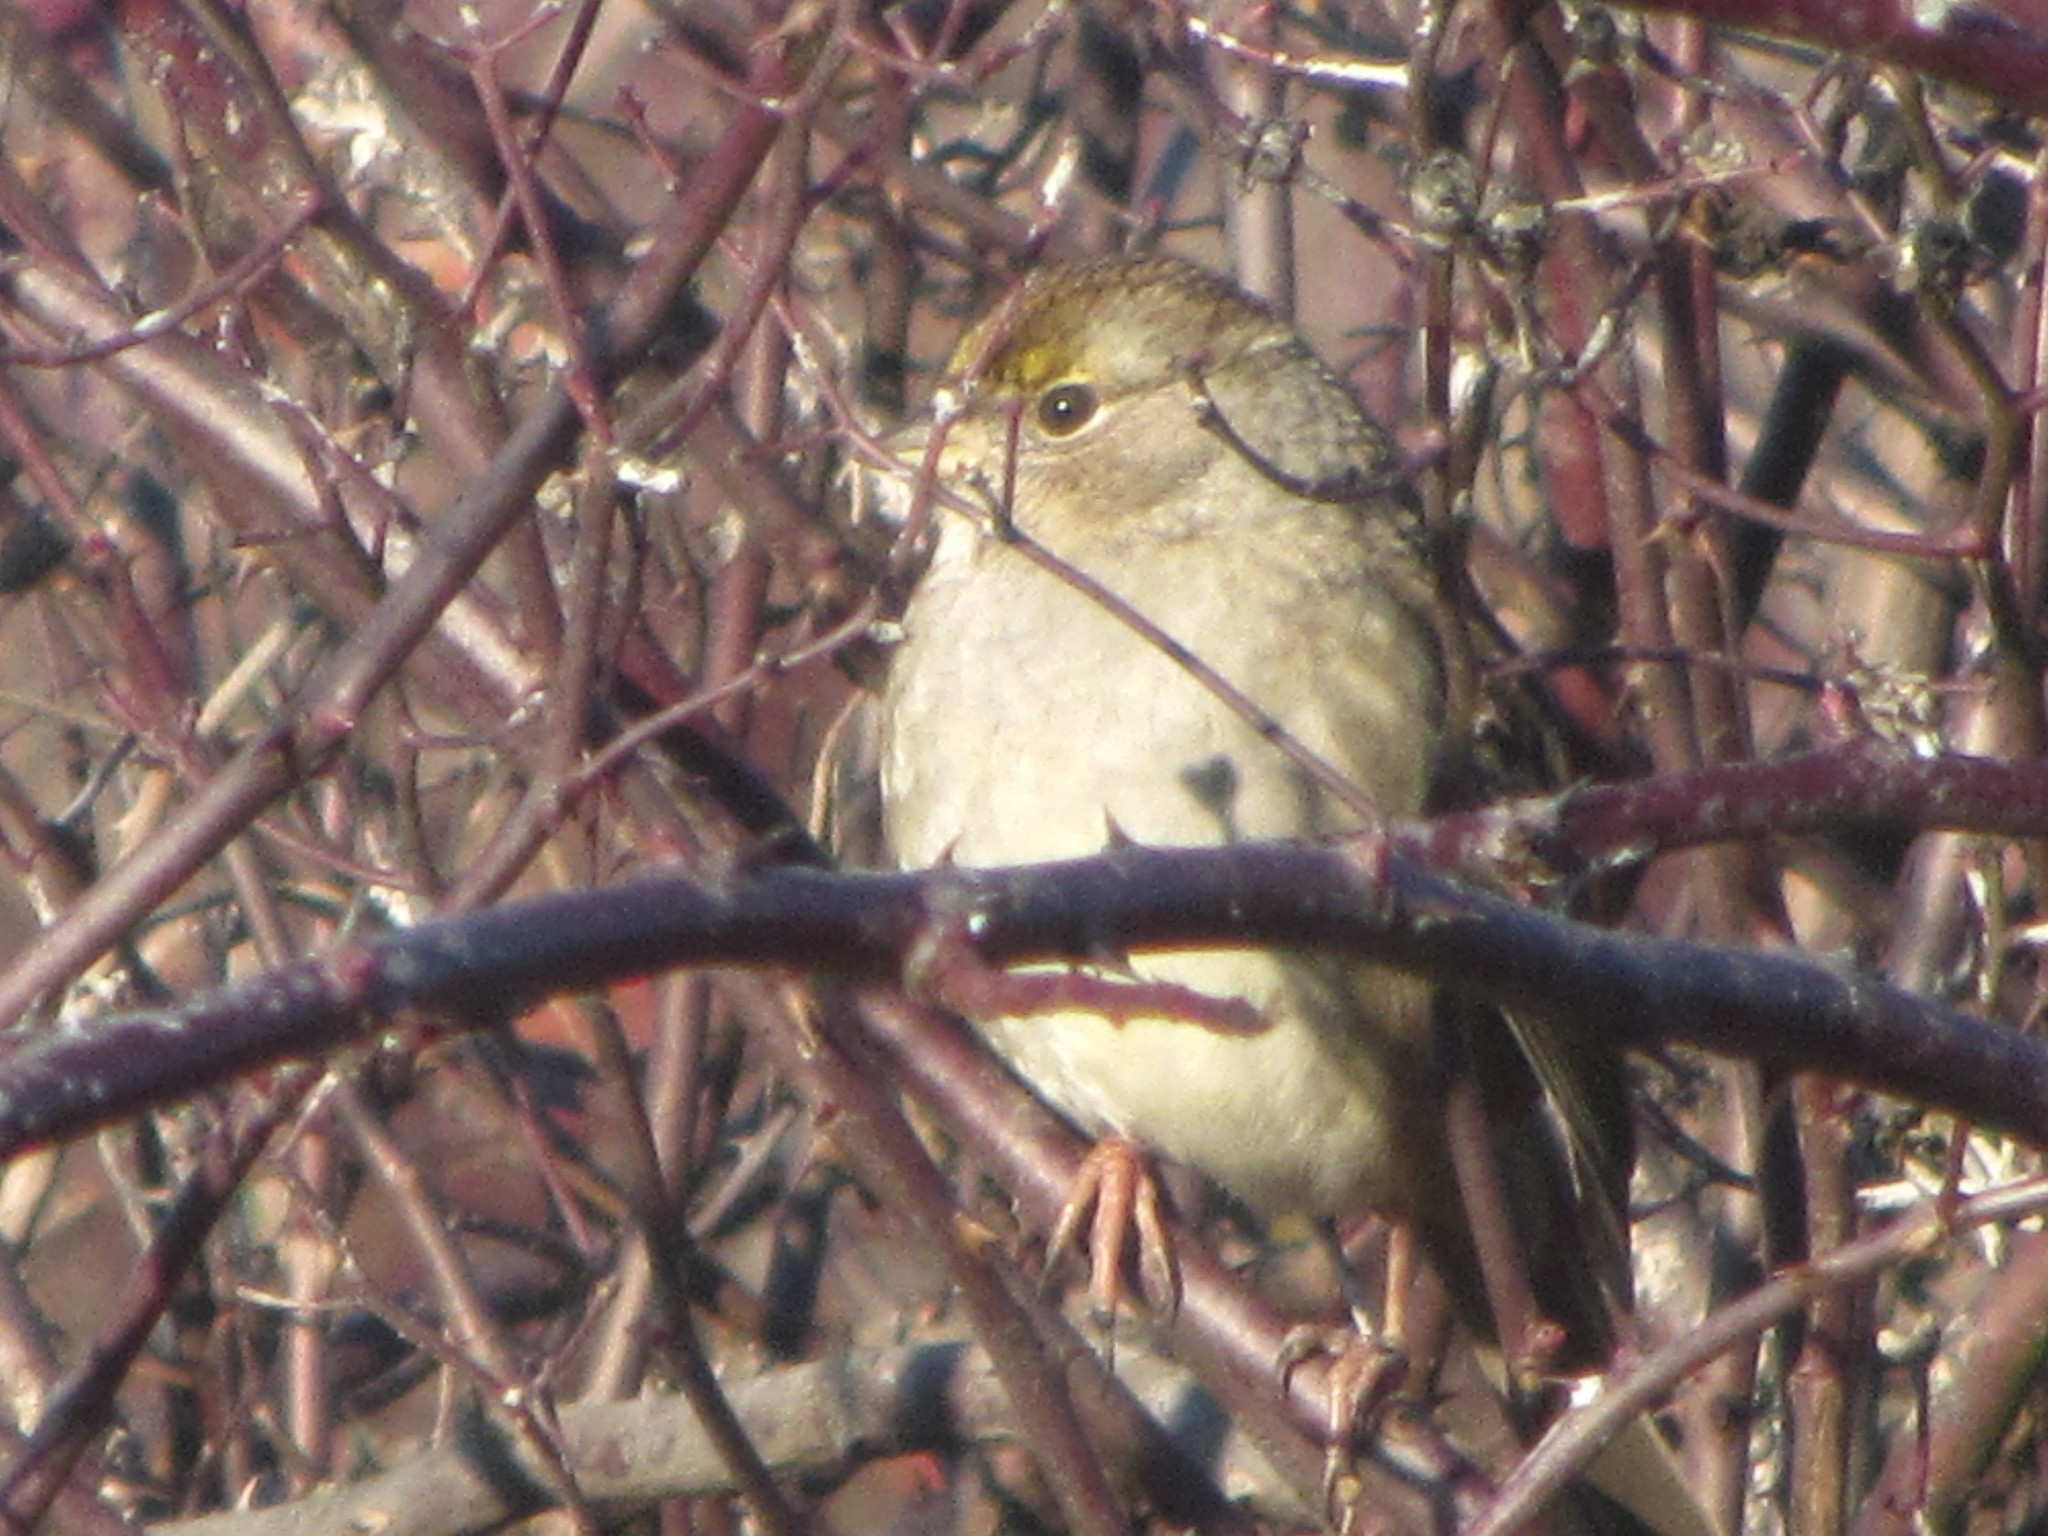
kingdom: Animalia
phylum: Chordata
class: Aves
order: Passeriformes
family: Passerellidae
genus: Zonotrichia
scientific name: Zonotrichia atricapilla
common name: Golden-crowned sparrow
